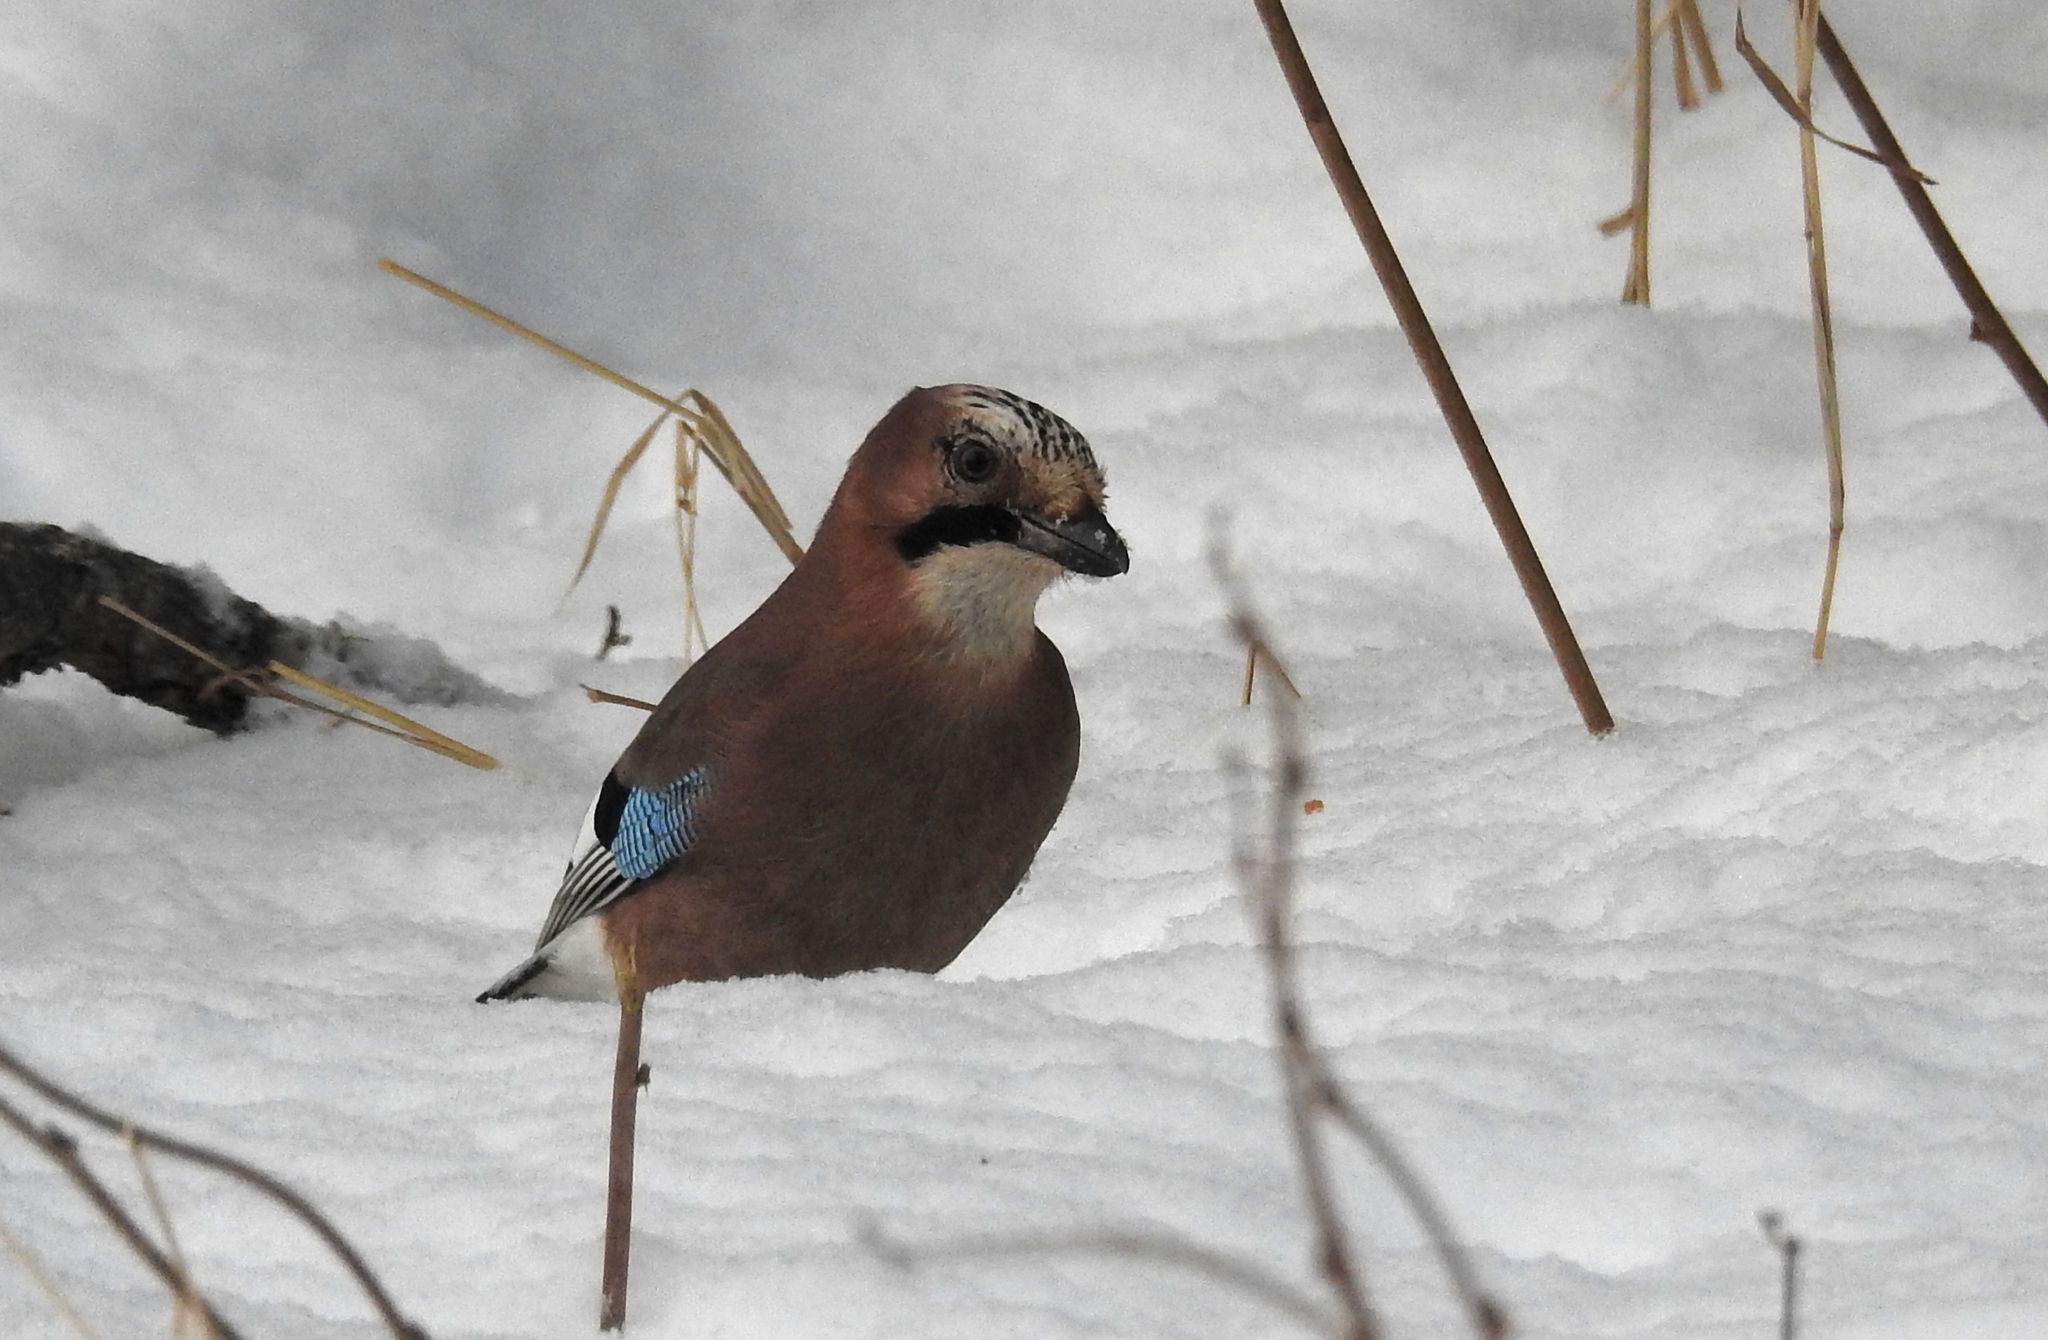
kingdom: Animalia
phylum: Chordata
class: Aves
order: Passeriformes
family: Corvidae
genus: Garrulus
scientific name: Garrulus glandarius
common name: Eurasian jay
